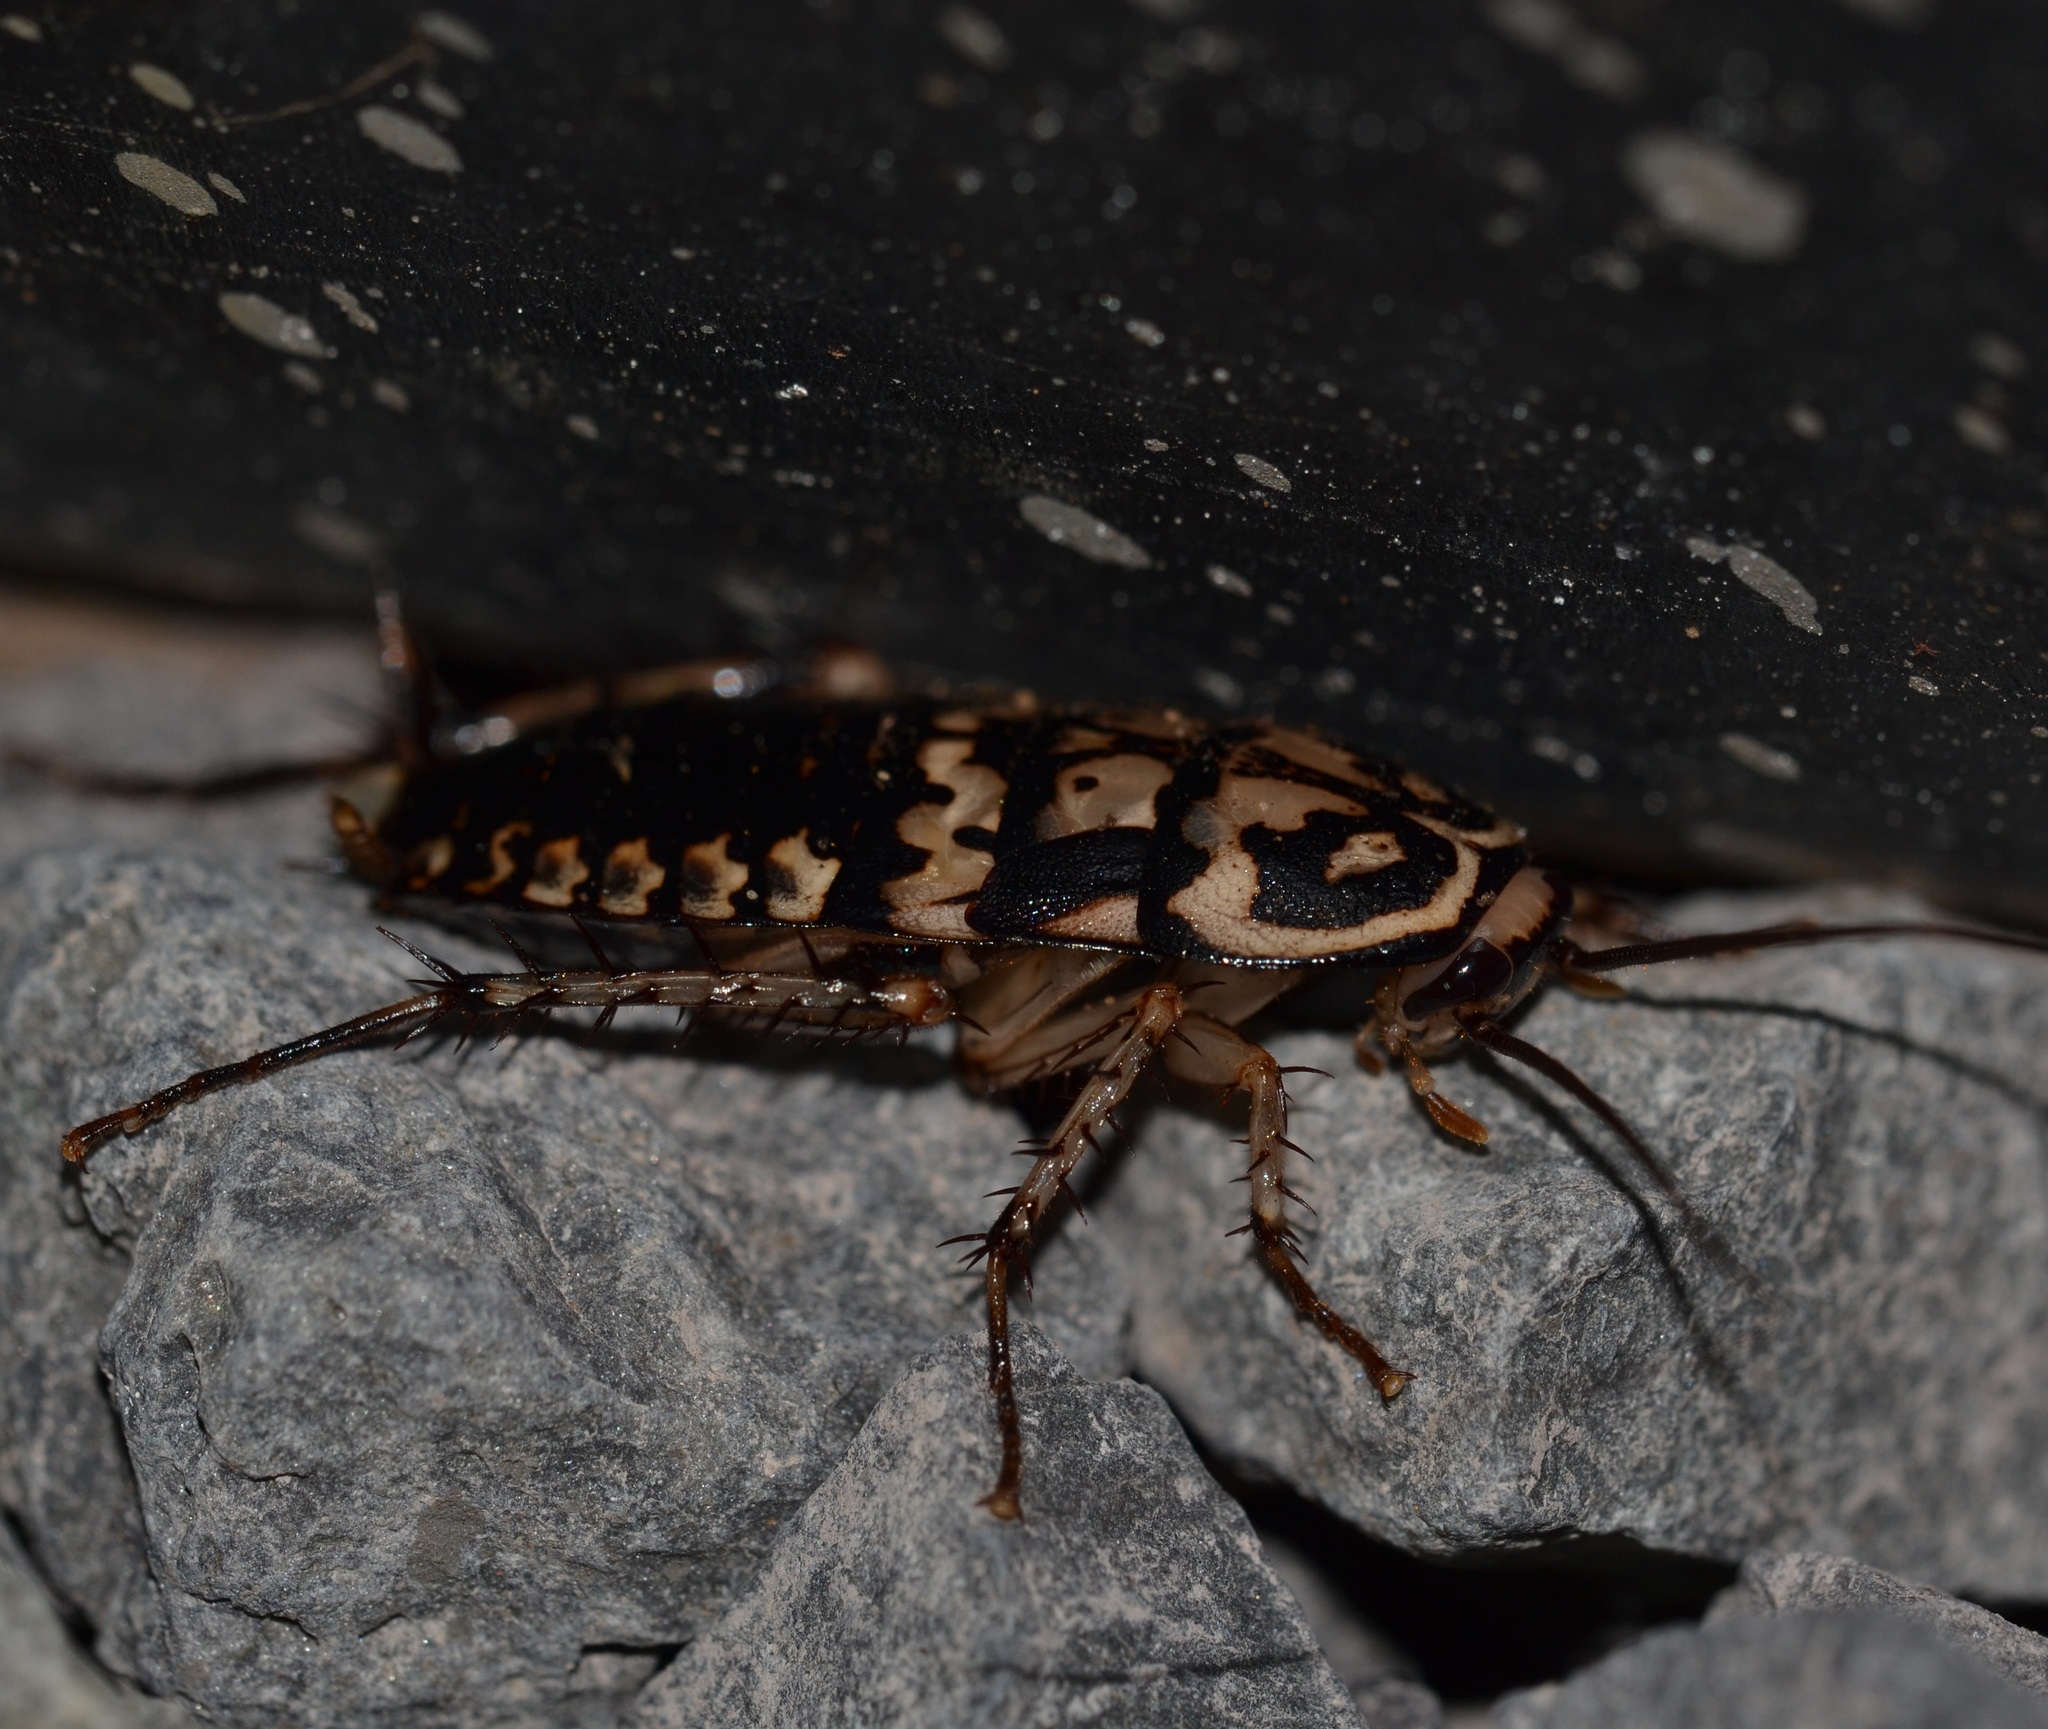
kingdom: Animalia
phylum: Arthropoda
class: Insecta
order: Blattodea
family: Blattidae
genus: Neostylopyga
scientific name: Neostylopyga rhombifolia
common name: Harlequin cockroach
